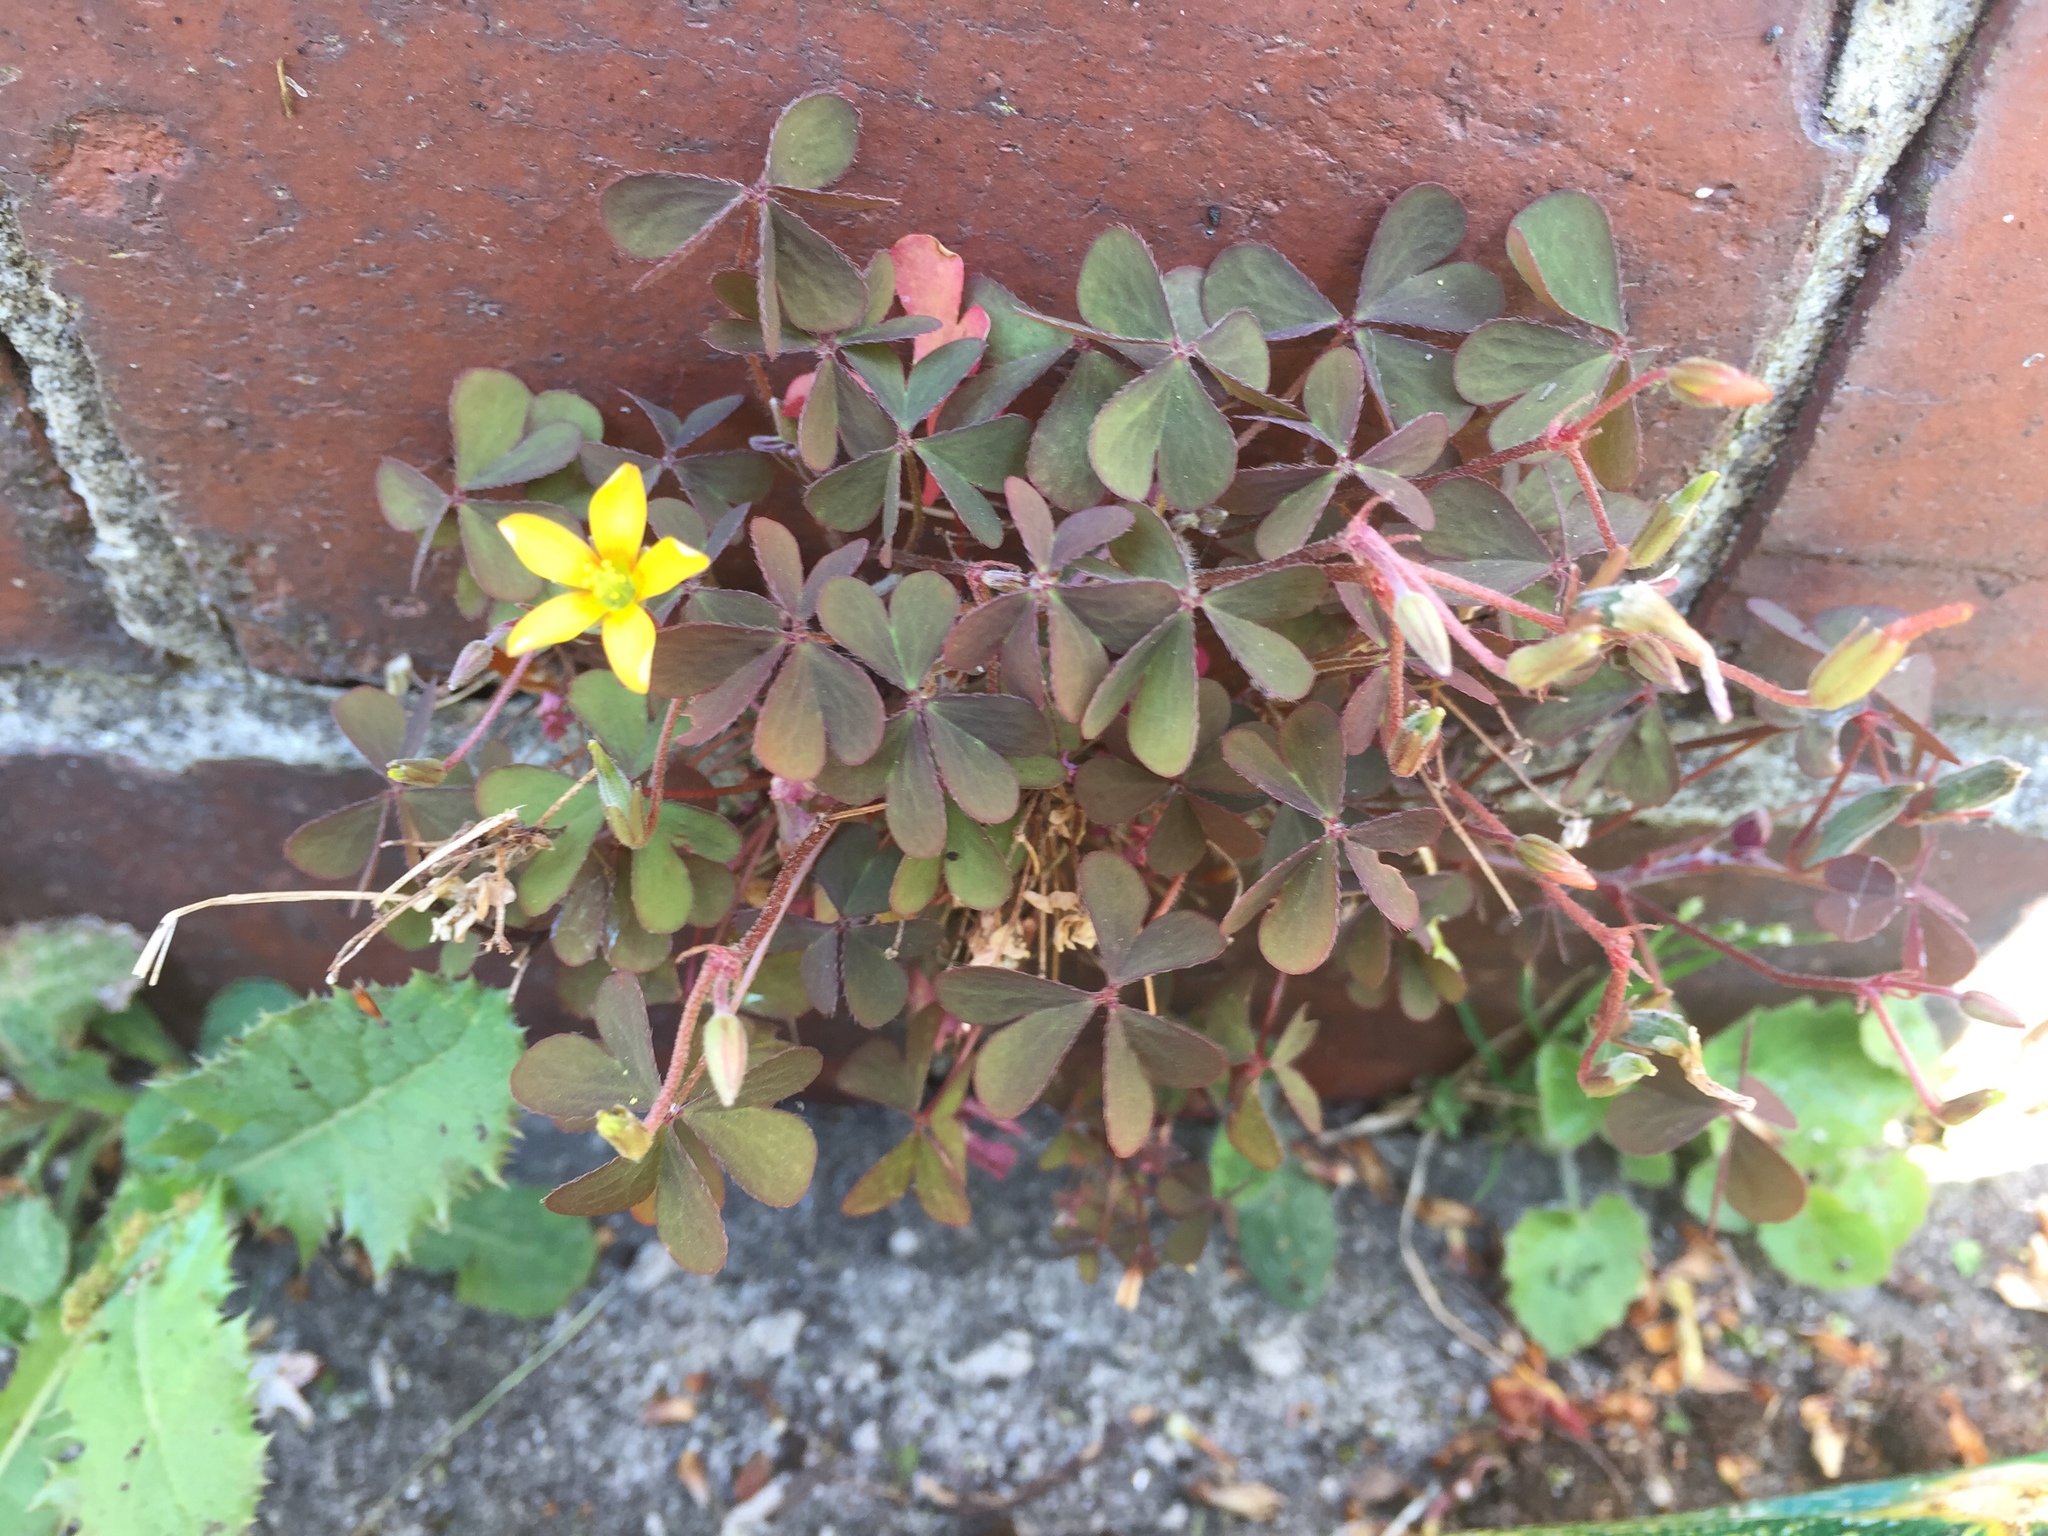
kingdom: Plantae
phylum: Tracheophyta
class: Magnoliopsida
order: Oxalidales
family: Oxalidaceae
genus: Oxalis
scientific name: Oxalis corniculata
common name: Procumbent yellow-sorrel
